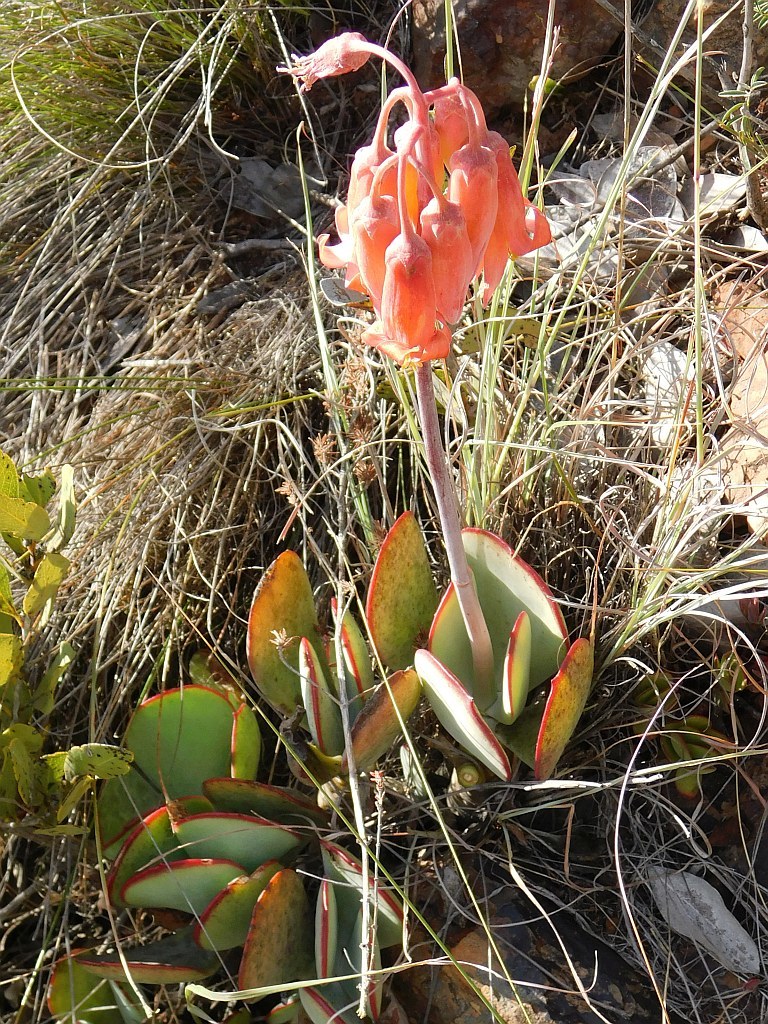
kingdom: Plantae
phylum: Tracheophyta
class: Magnoliopsida
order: Saxifragales
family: Crassulaceae
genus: Cotyledon
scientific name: Cotyledon orbiculata
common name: Pig's ear
